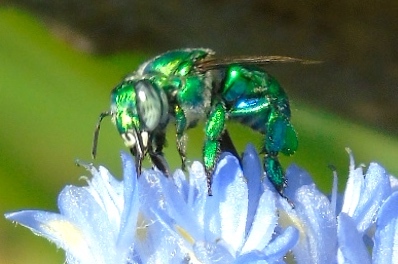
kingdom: Animalia
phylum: Arthropoda
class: Insecta
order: Hymenoptera
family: Apidae
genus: Euglossa
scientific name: Euglossa
